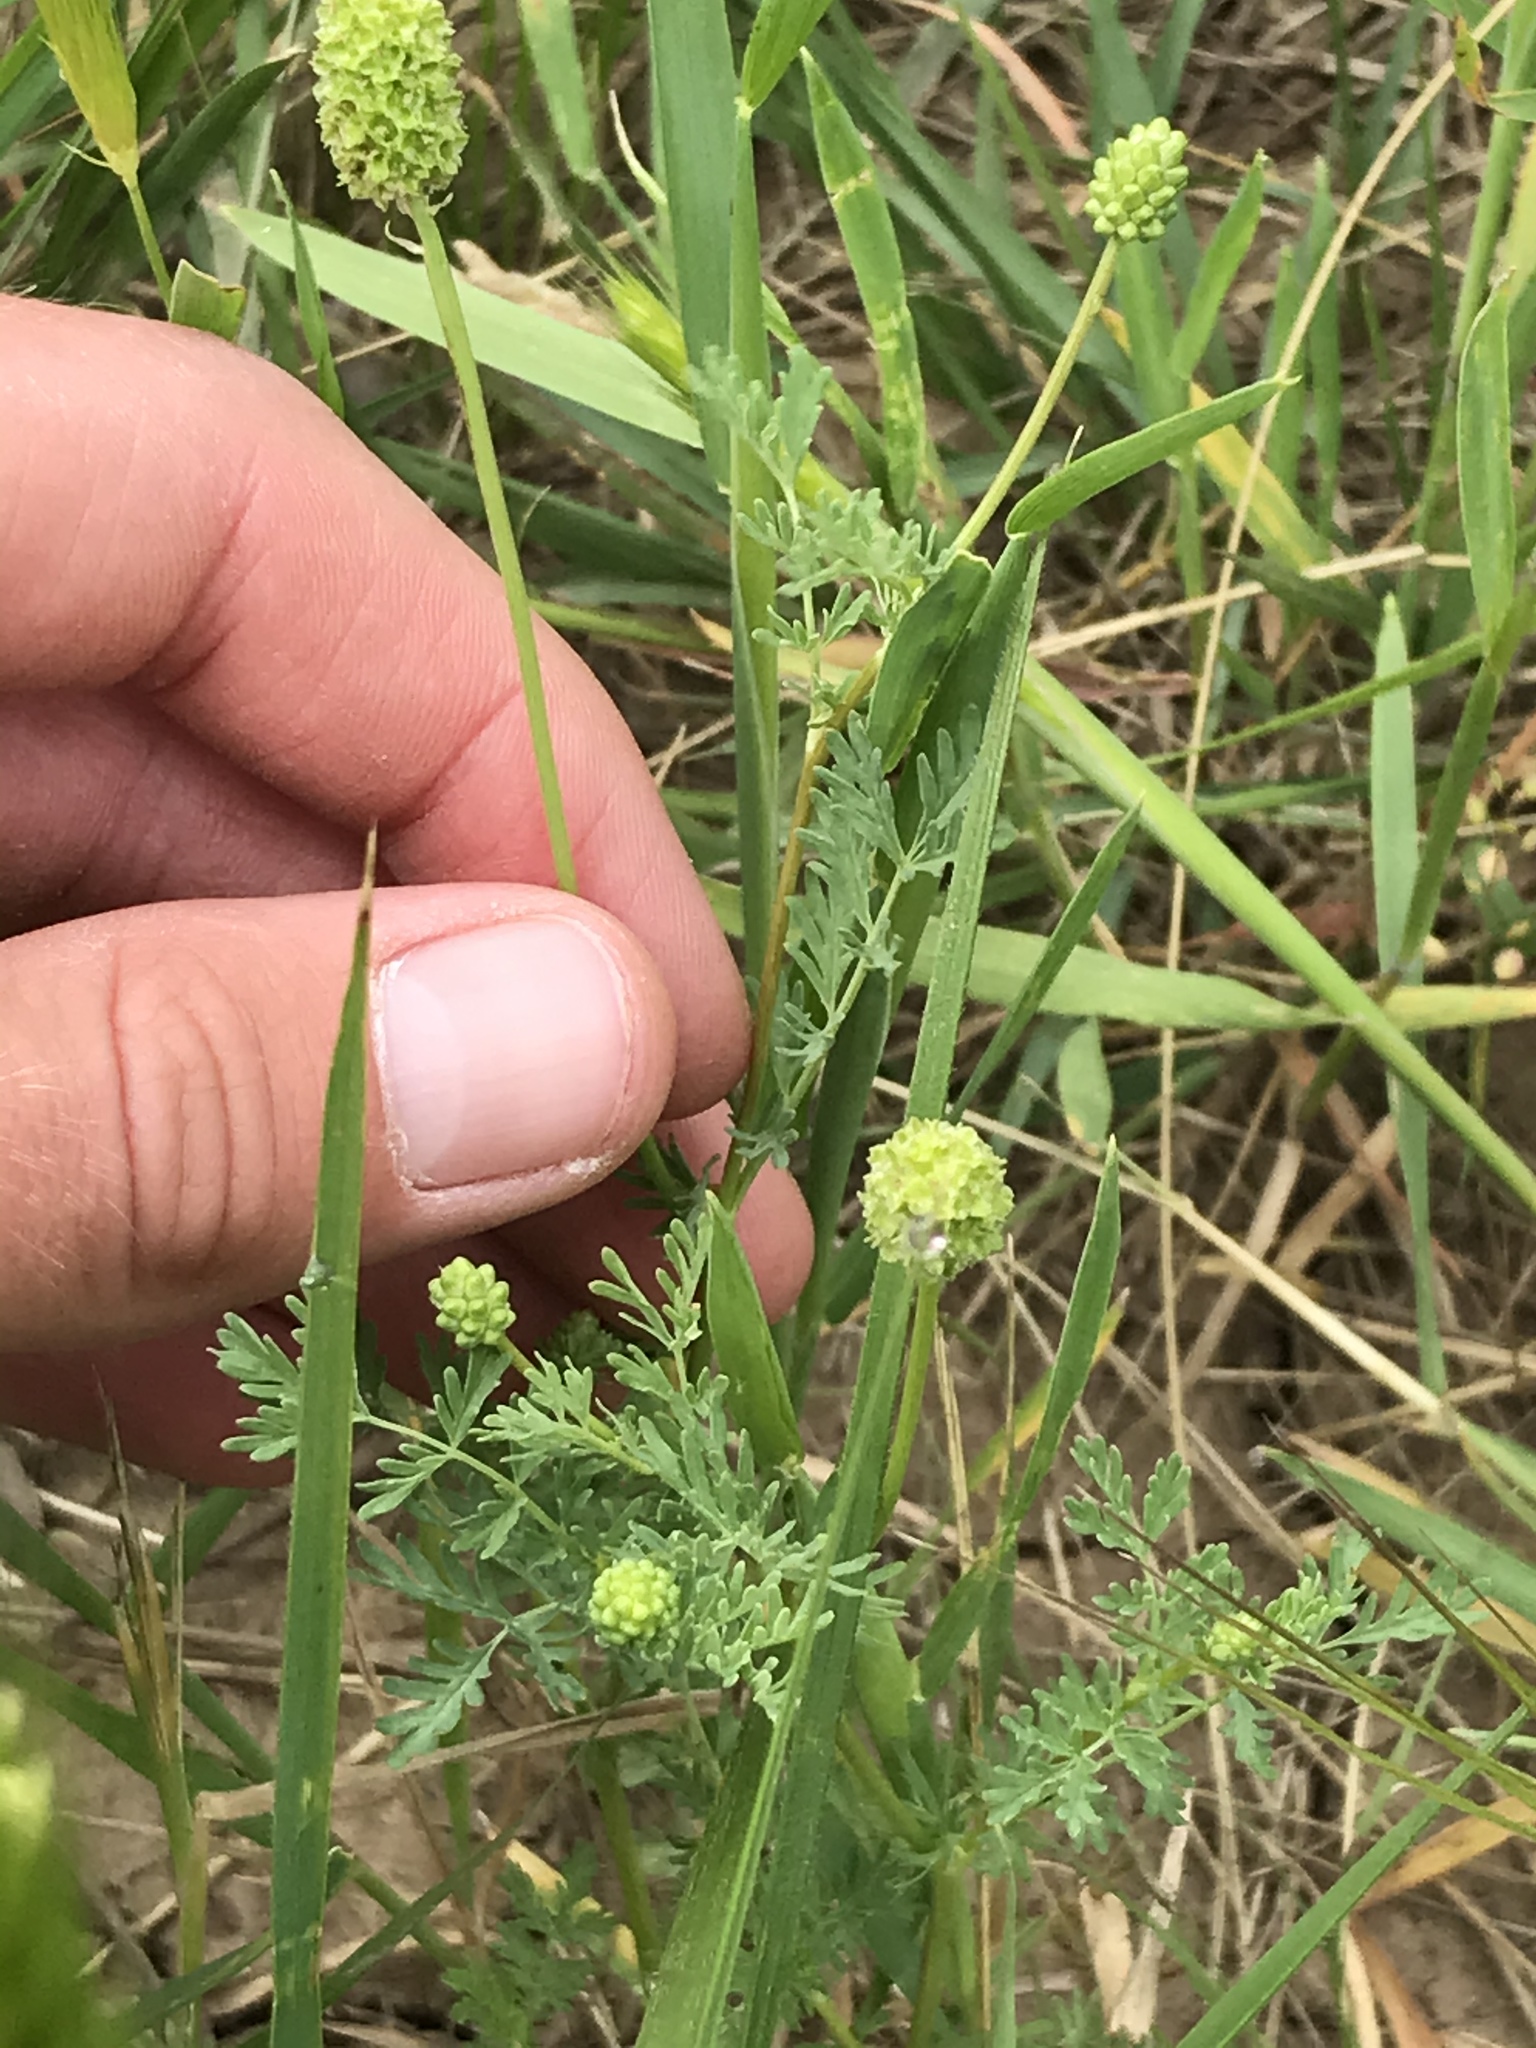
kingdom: Plantae
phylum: Tracheophyta
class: Magnoliopsida
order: Rosales
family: Rosaceae
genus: Poteridium
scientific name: Poteridium annuum
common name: Annual burnet
